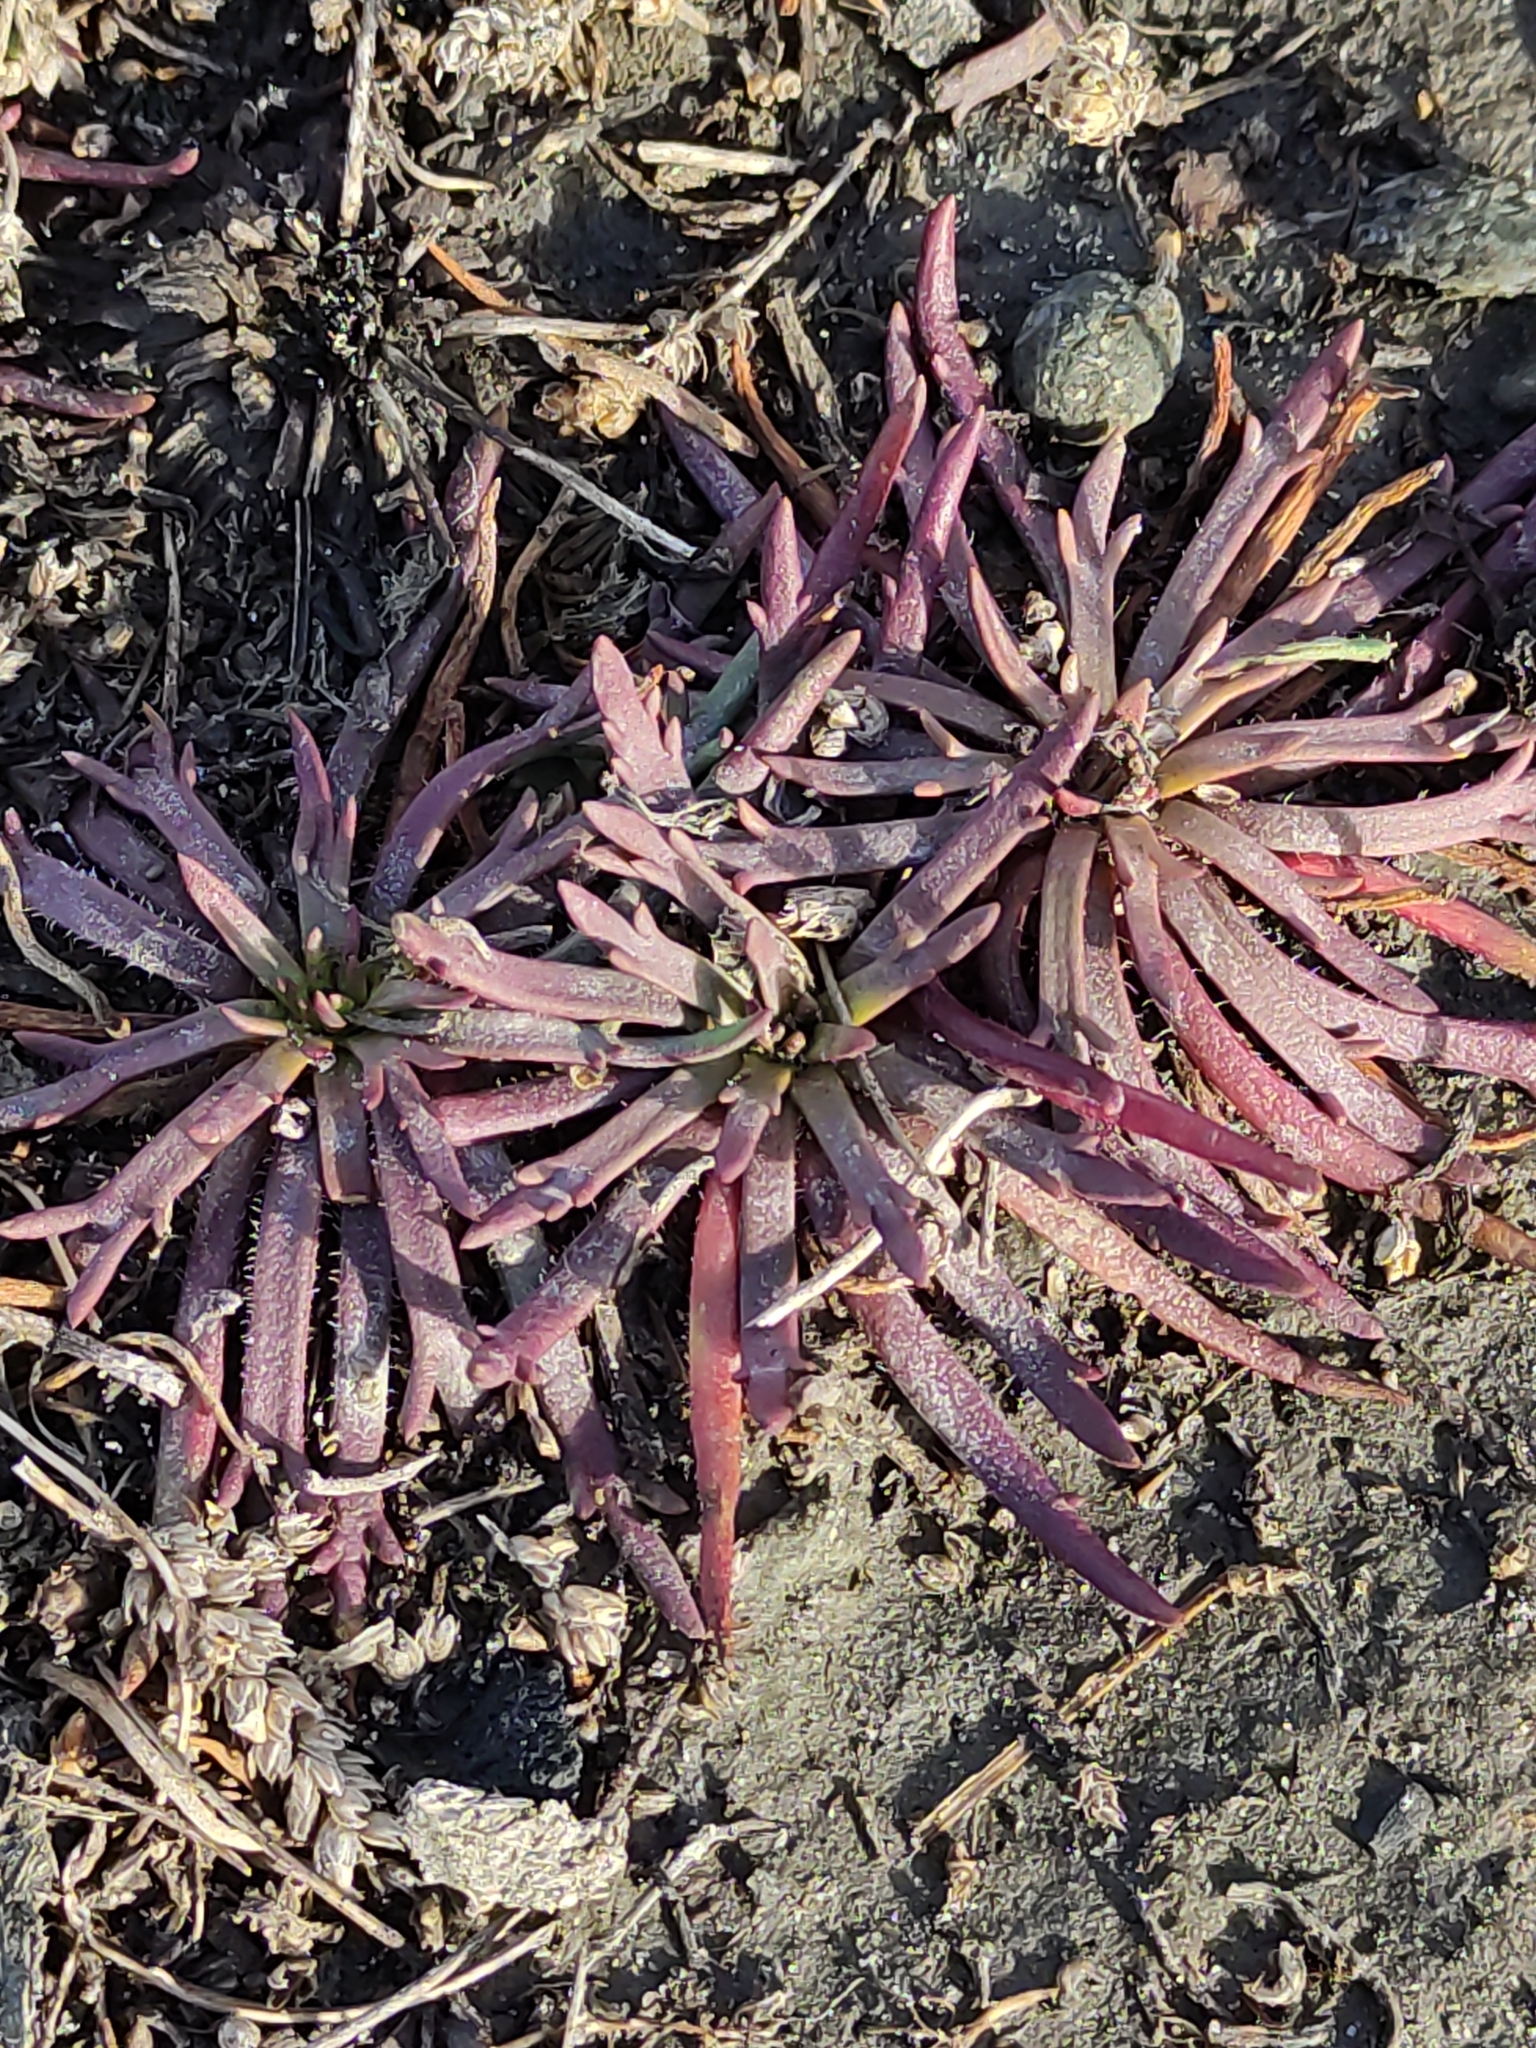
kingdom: Plantae
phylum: Tracheophyta
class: Magnoliopsida
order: Lamiales
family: Plantaginaceae
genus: Plantago
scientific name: Plantago coronopus
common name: Buck's-horn plantain
